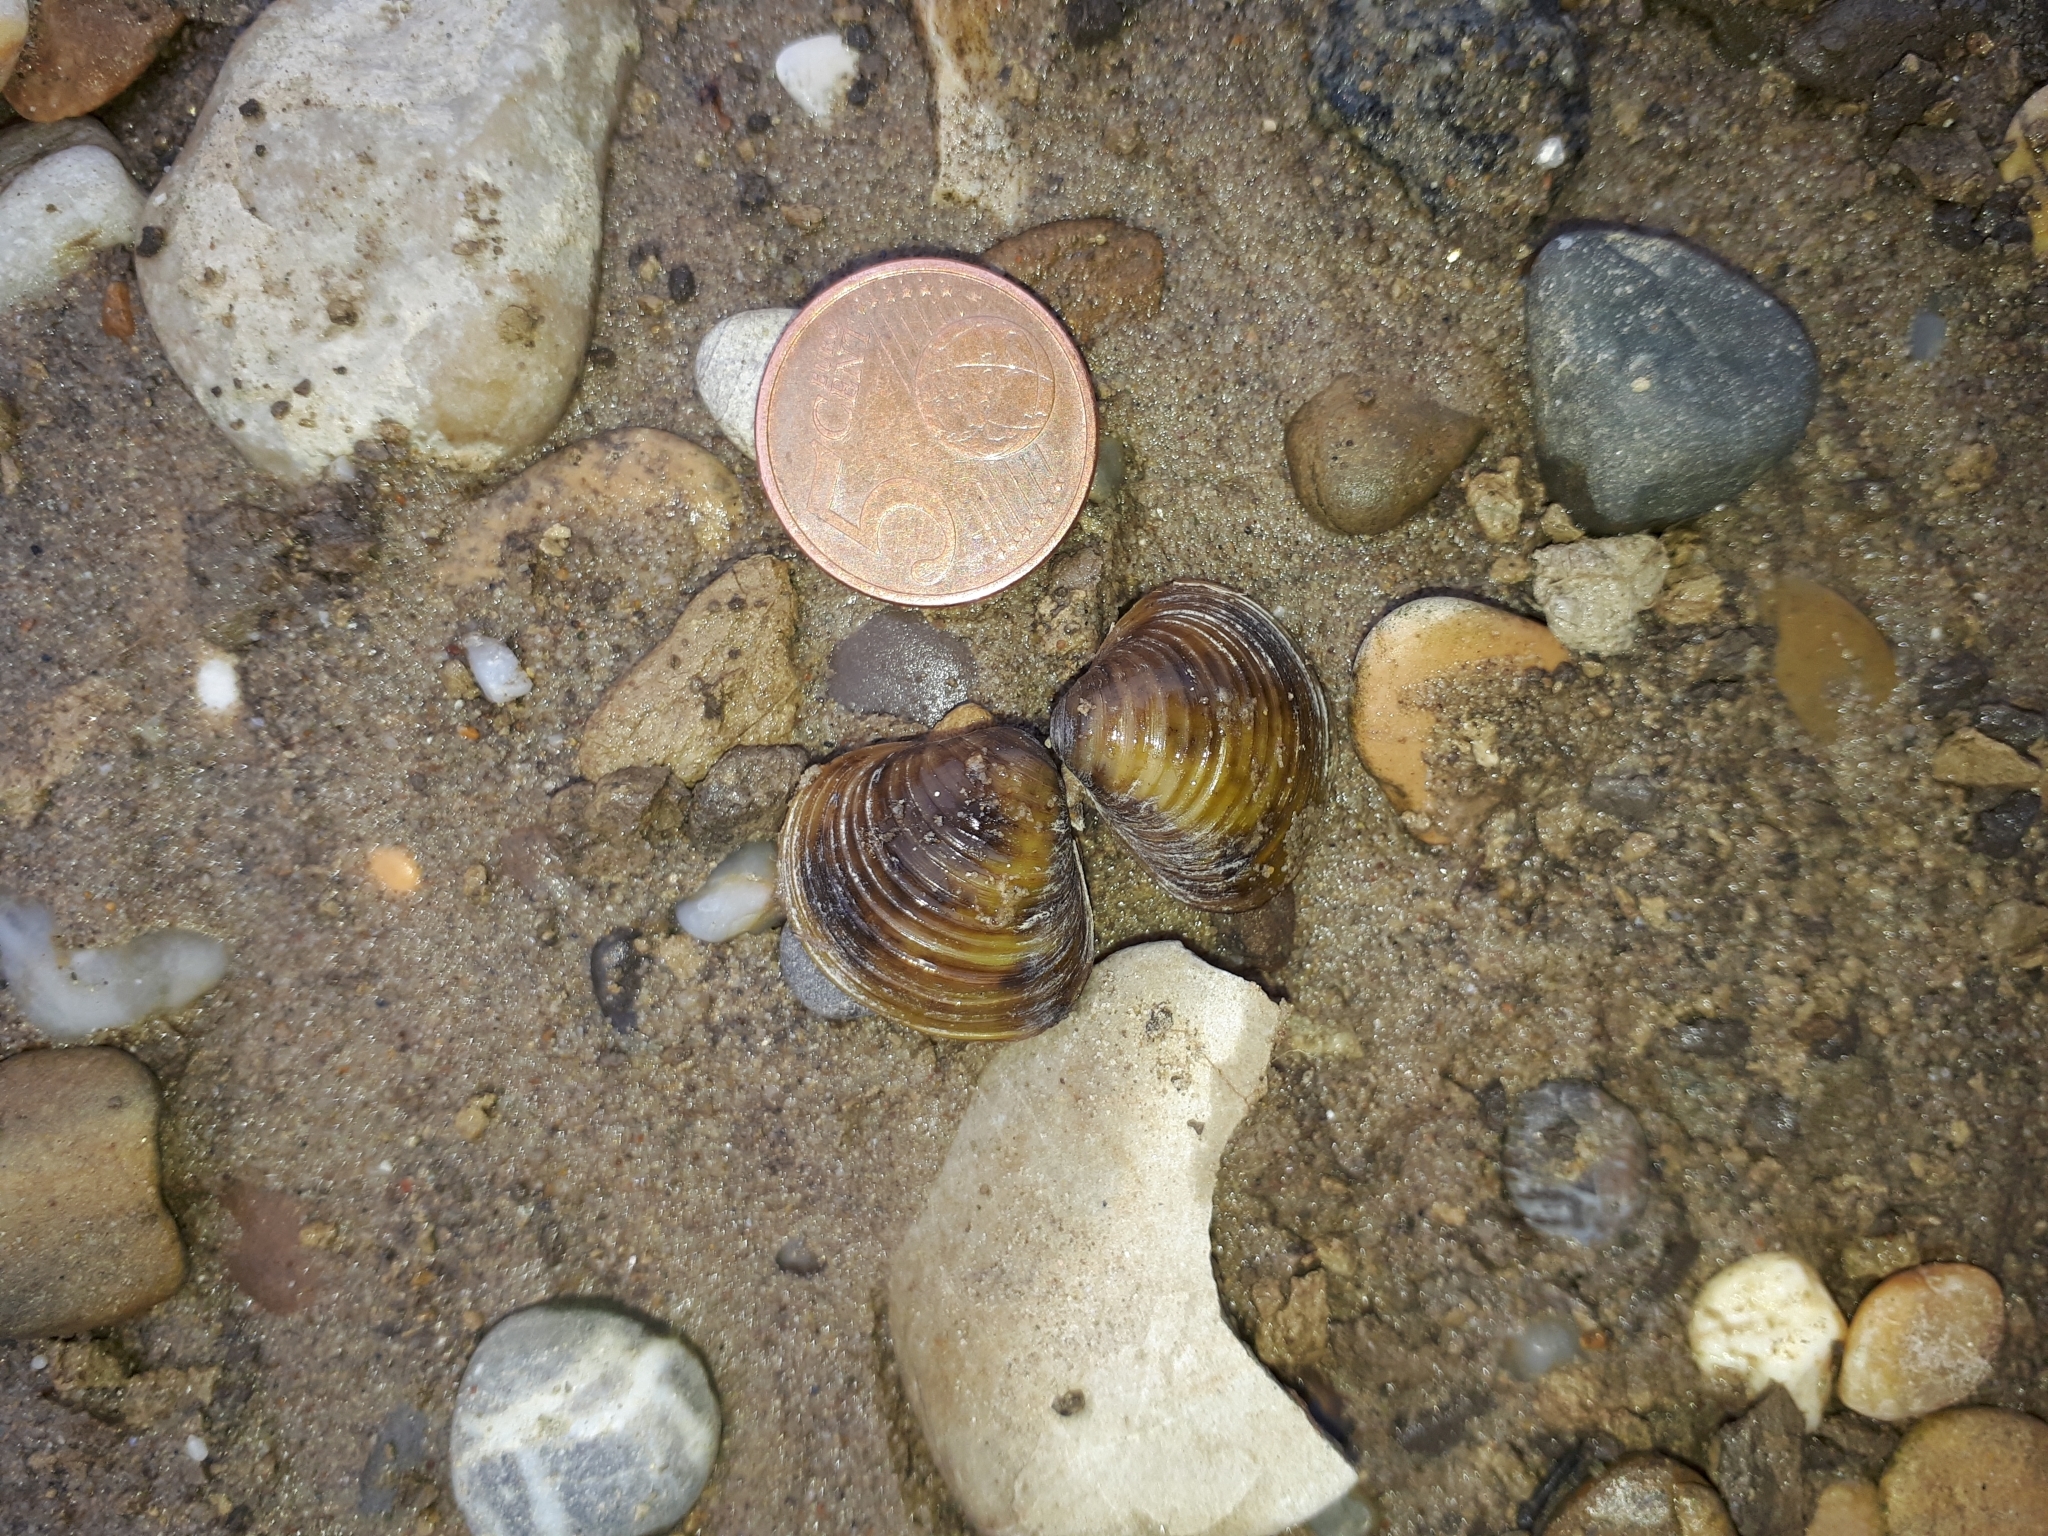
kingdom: Animalia
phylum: Mollusca
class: Bivalvia
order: Venerida
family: Cyrenidae
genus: Corbicula
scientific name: Corbicula fluminea
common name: Asian clam
